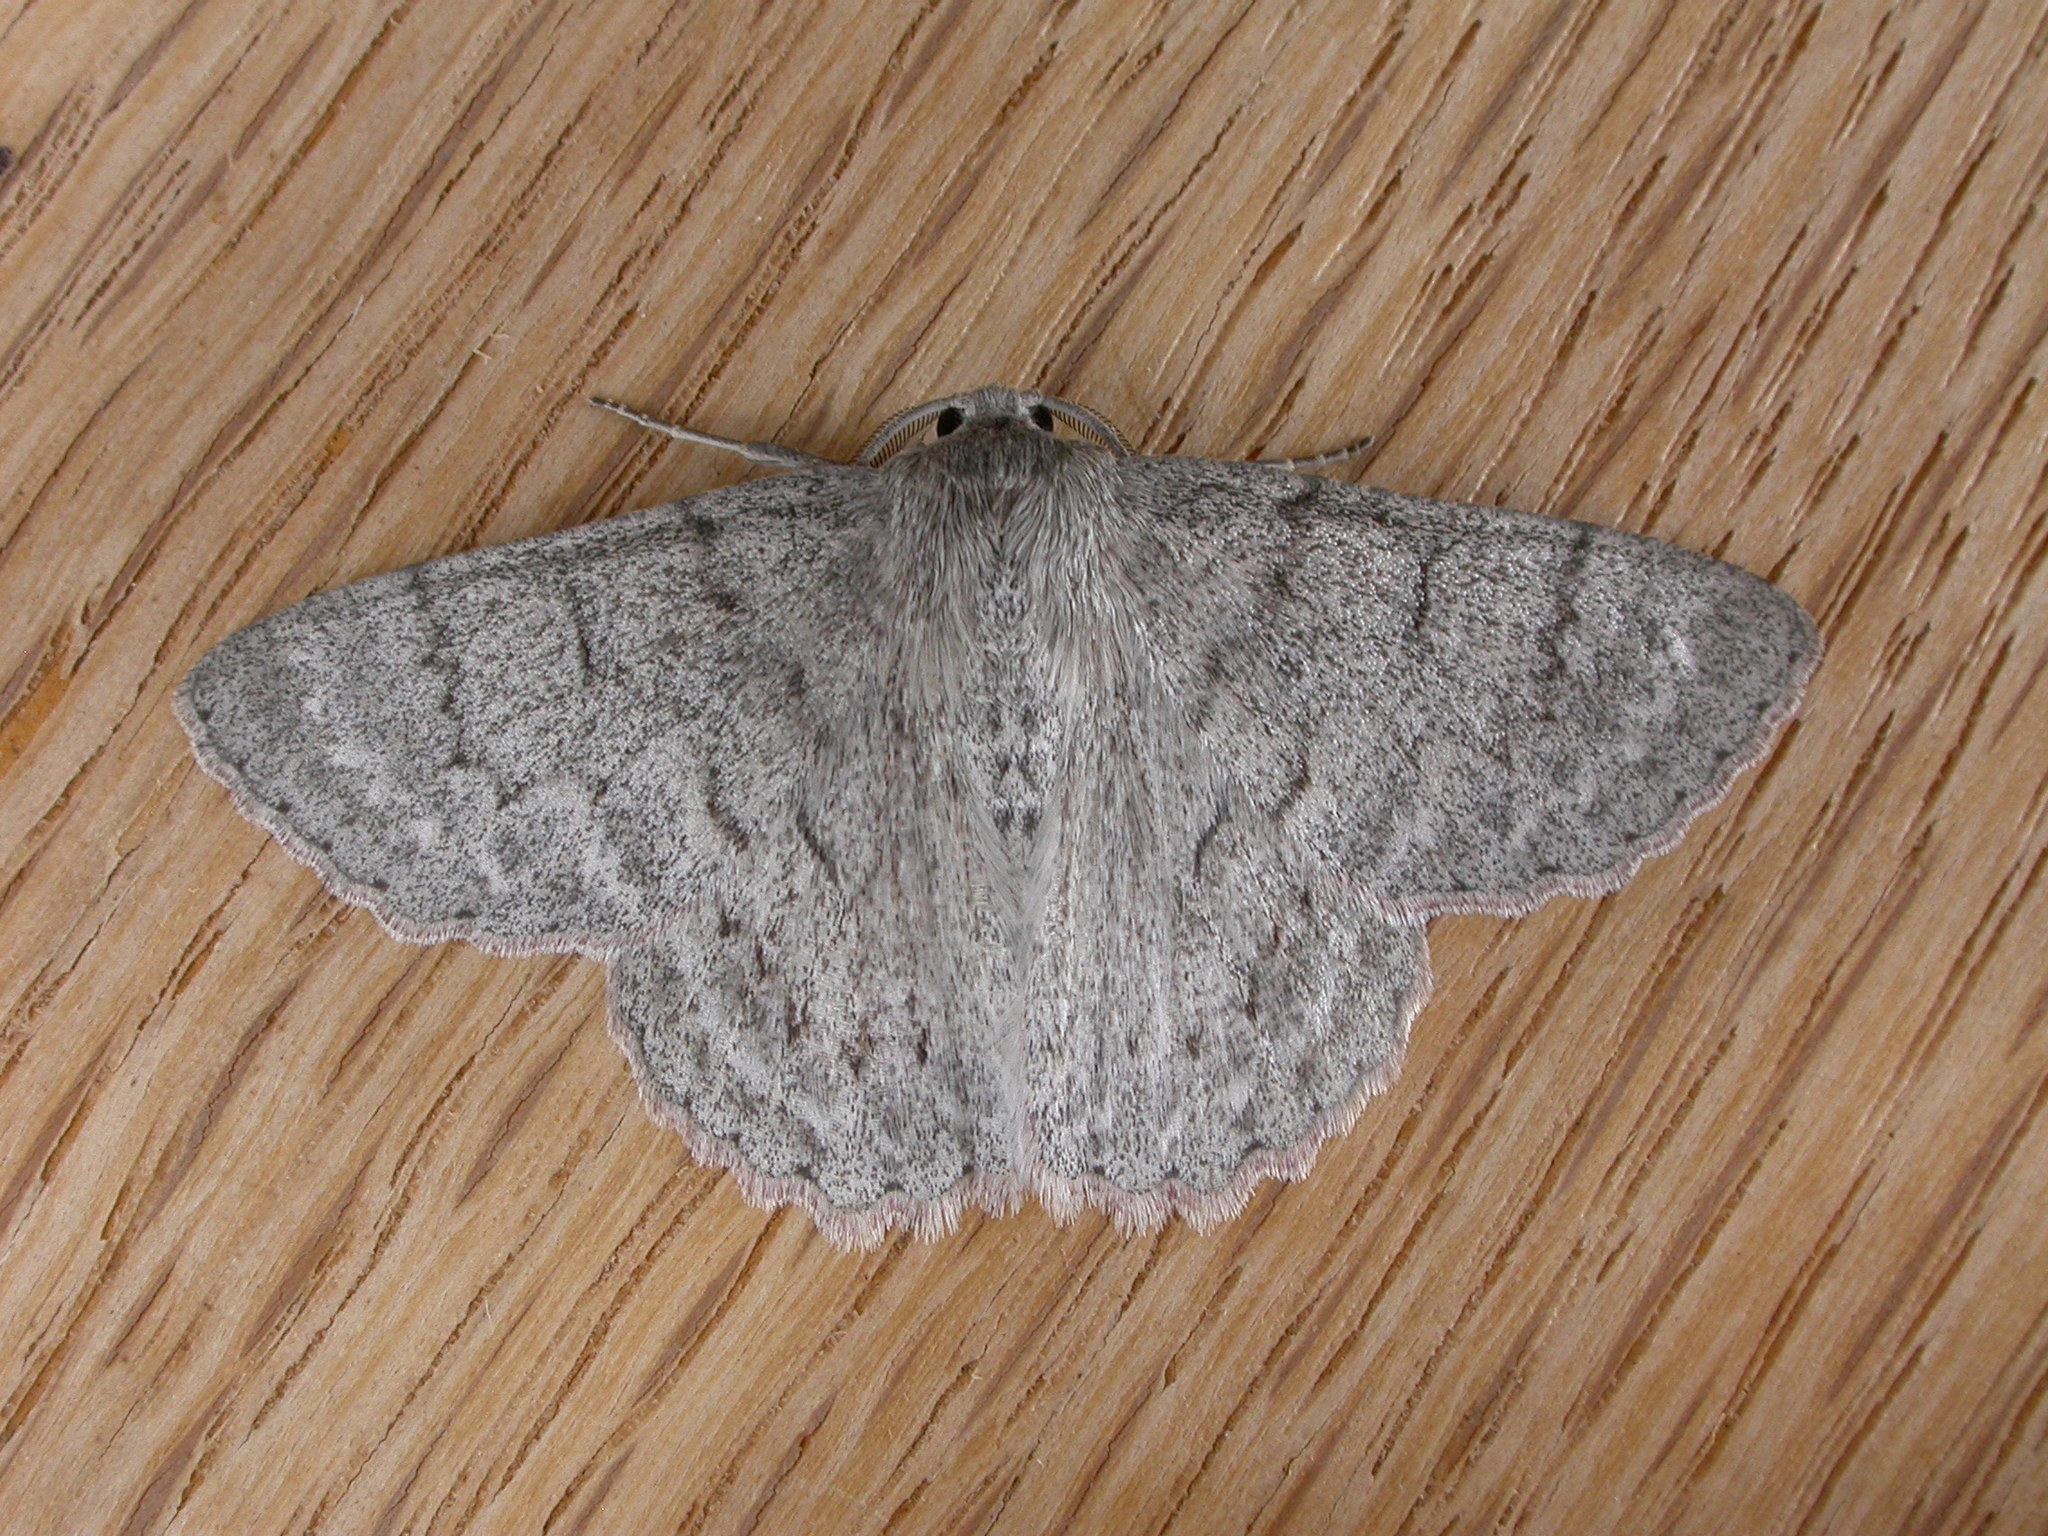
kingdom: Animalia
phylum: Arthropoda
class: Insecta
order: Lepidoptera
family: Geometridae
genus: Crypsiphona
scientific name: Crypsiphona ocultaria
